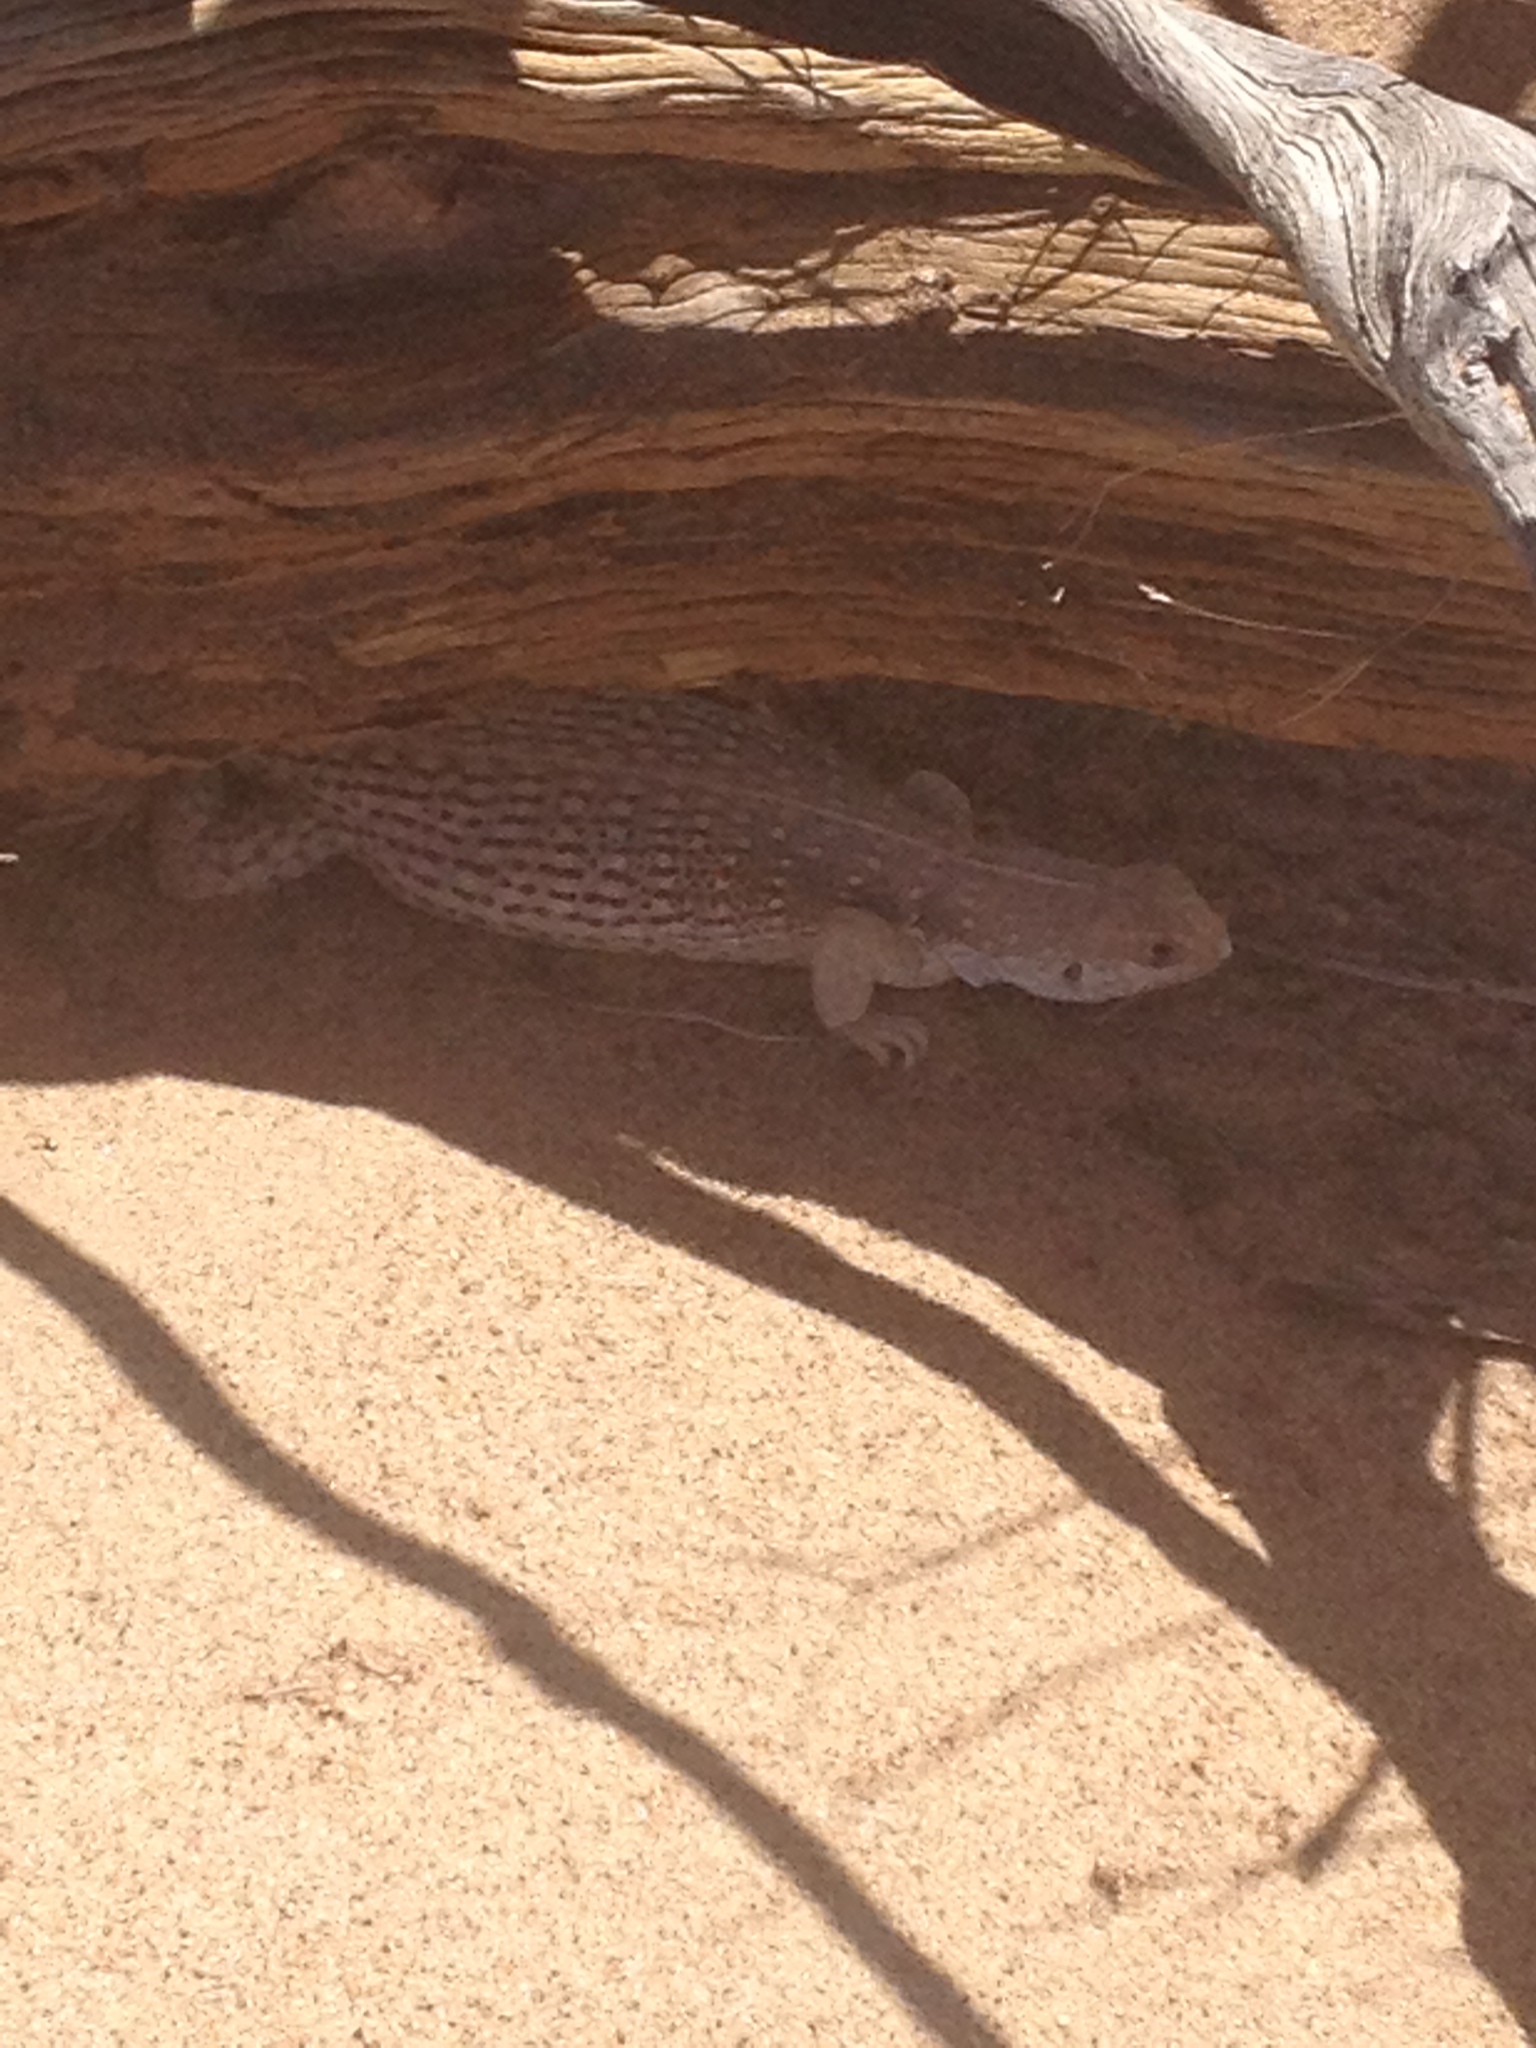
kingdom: Animalia
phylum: Chordata
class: Squamata
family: Iguanidae
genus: Dipsosaurus
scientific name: Dipsosaurus dorsalis
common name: Desert iguana
